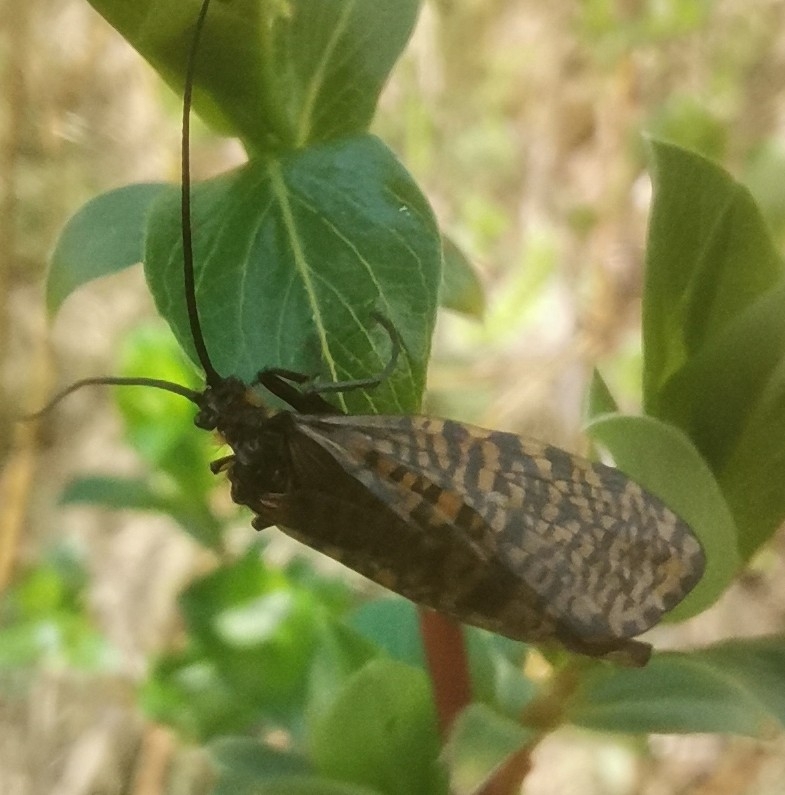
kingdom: Animalia
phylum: Arthropoda
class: Insecta
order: Trichoptera
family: Phryganeidae
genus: Oligostomis
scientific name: Oligostomis reticulata
